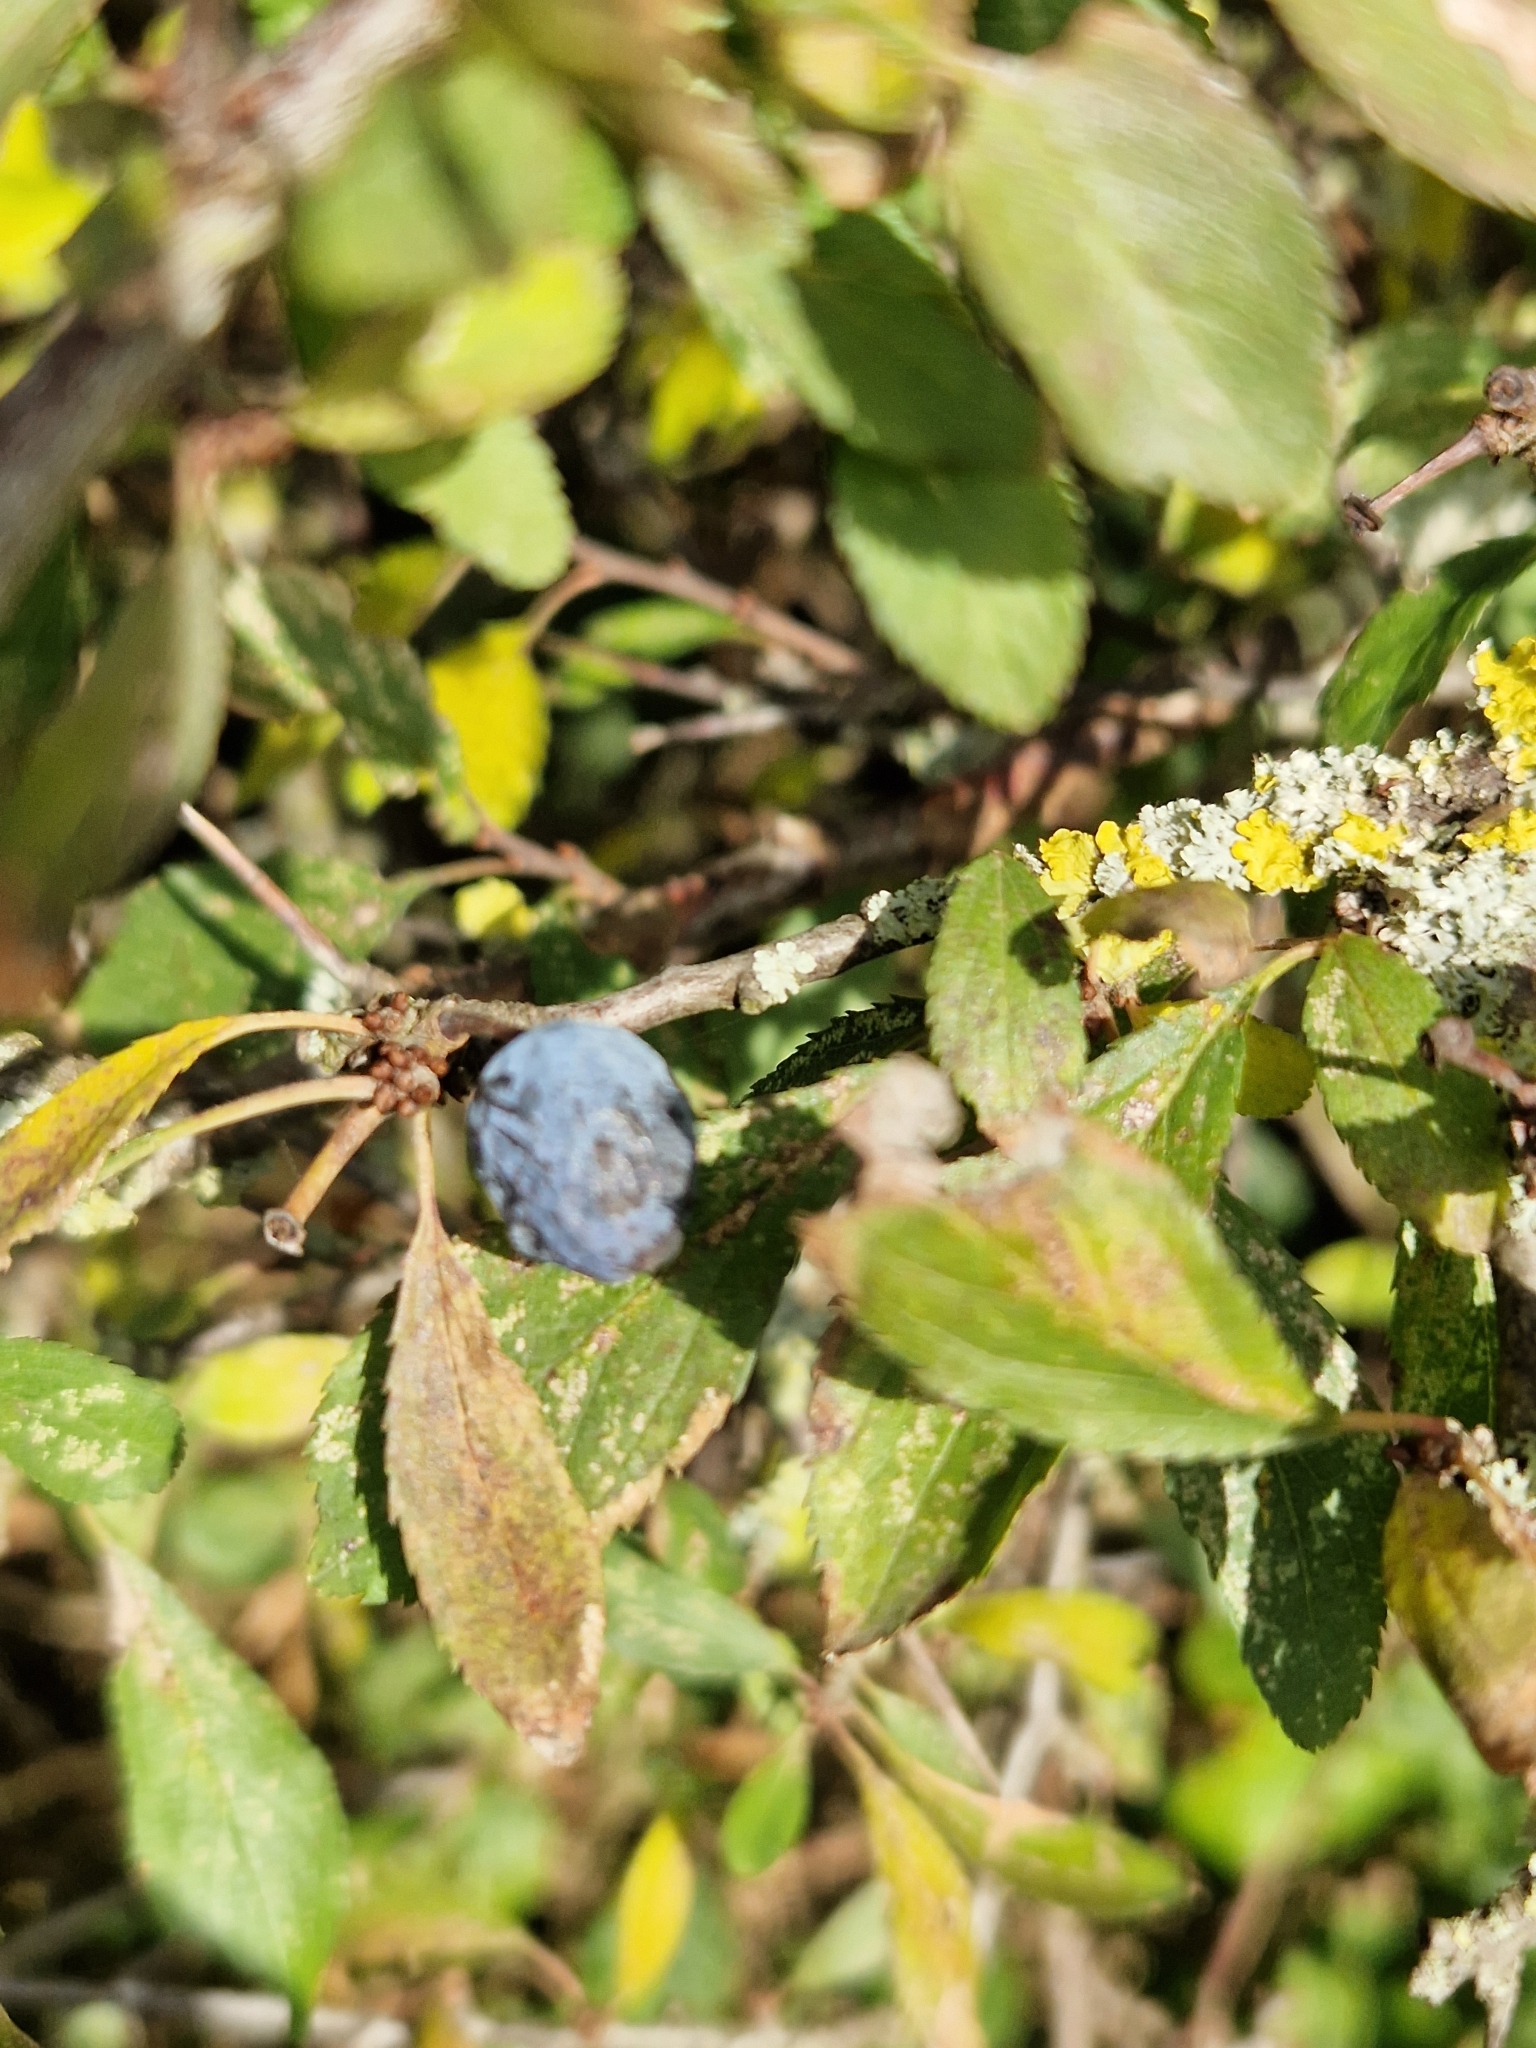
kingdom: Plantae
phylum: Tracheophyta
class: Magnoliopsida
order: Rosales
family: Rosaceae
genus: Prunus
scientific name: Prunus spinosa
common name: Blackthorn
